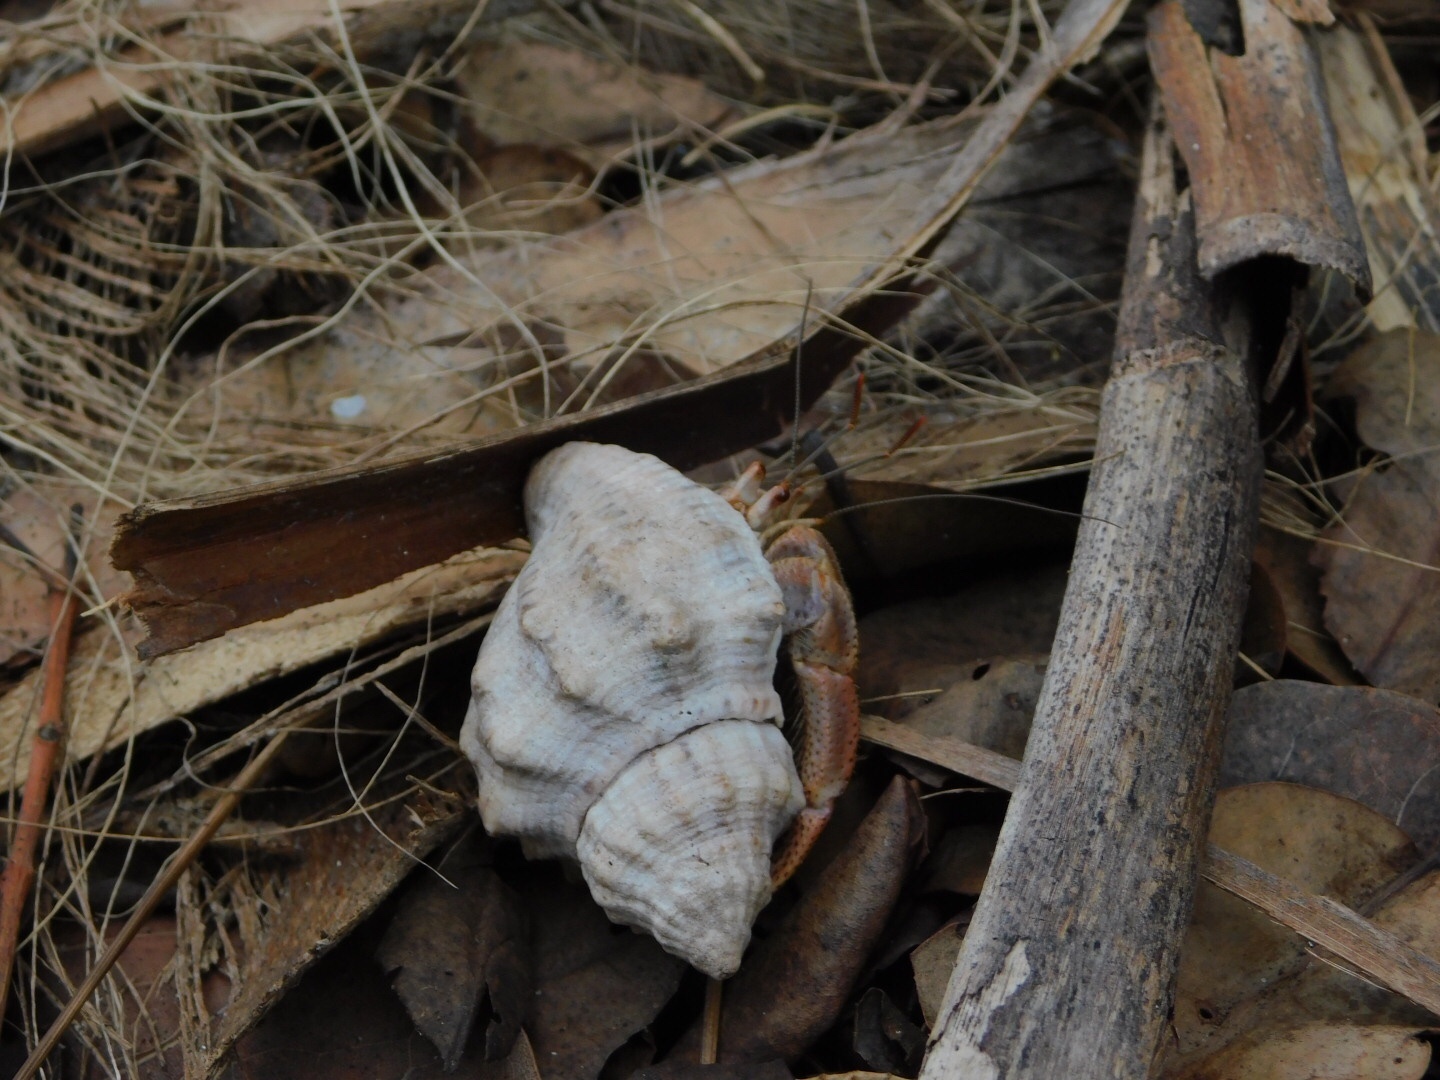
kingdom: Animalia
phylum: Arthropoda
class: Malacostraca
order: Decapoda
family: Coenobitidae
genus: Coenobita
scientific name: Coenobita clypeatus
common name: Caribbean hermit crab
